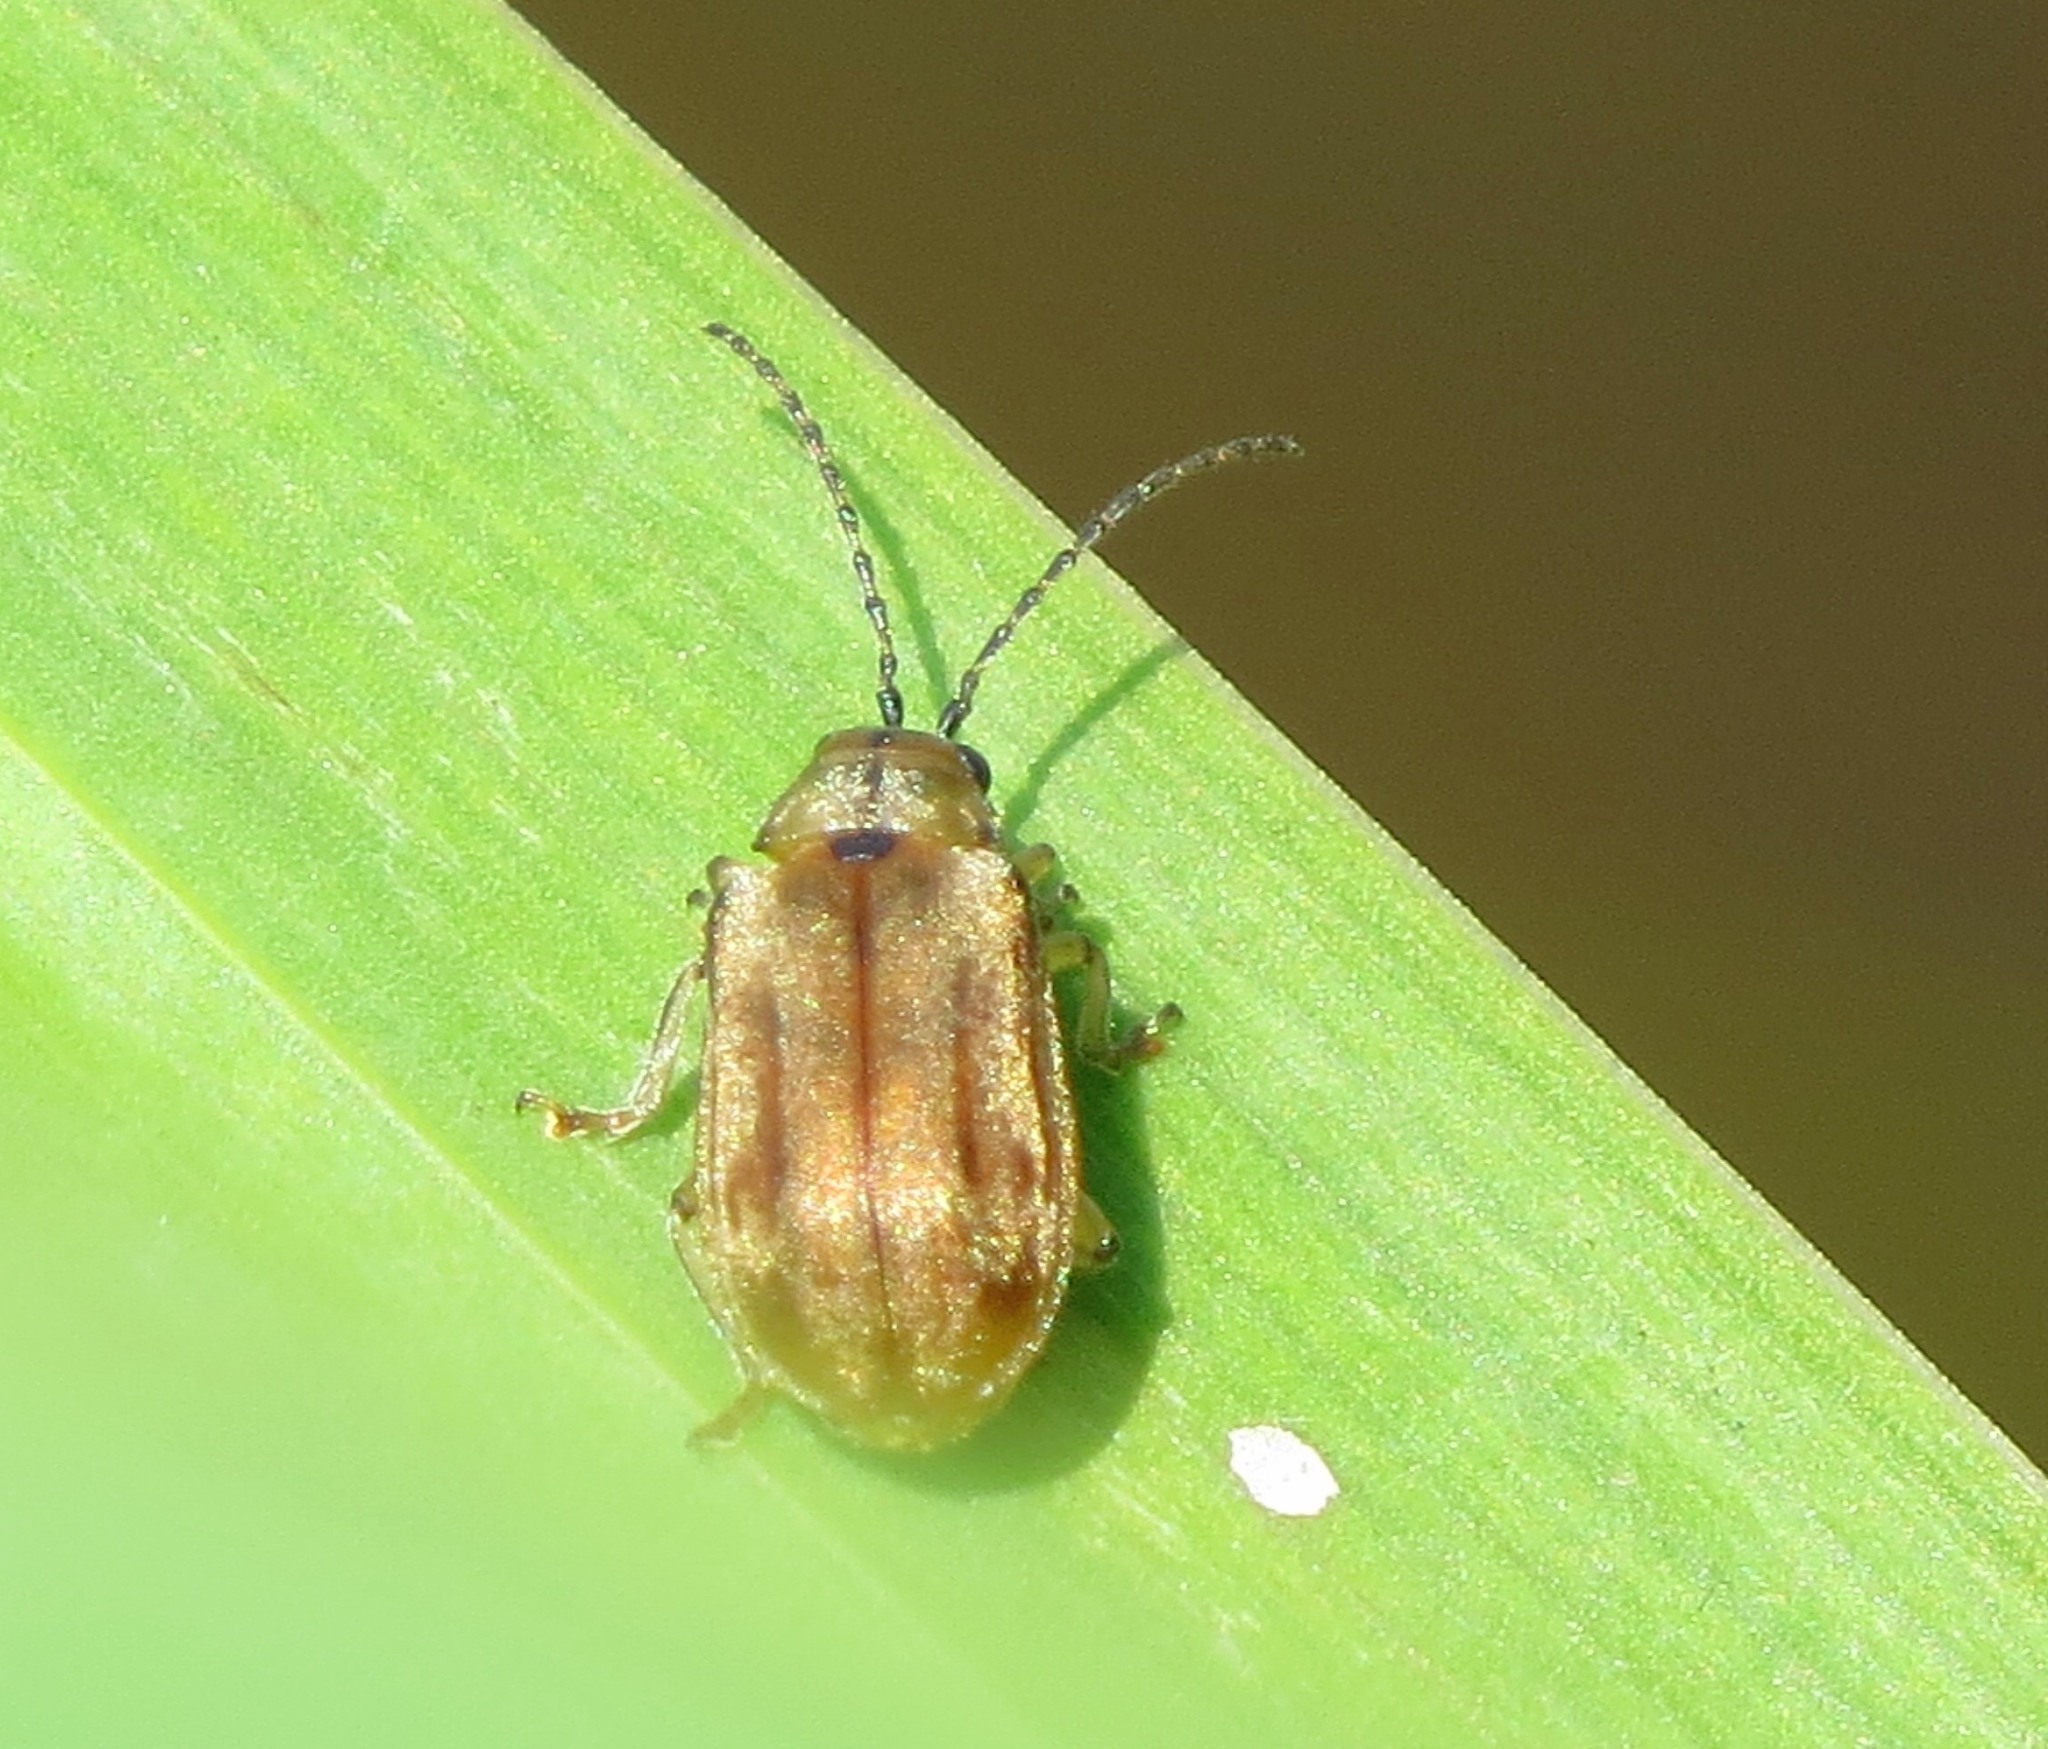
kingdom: Animalia
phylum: Arthropoda
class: Insecta
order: Coleoptera
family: Chrysomelidae
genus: Pyrrhalta
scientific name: Pyrrhalta viburni
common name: Guelder-rose leaf beetle
